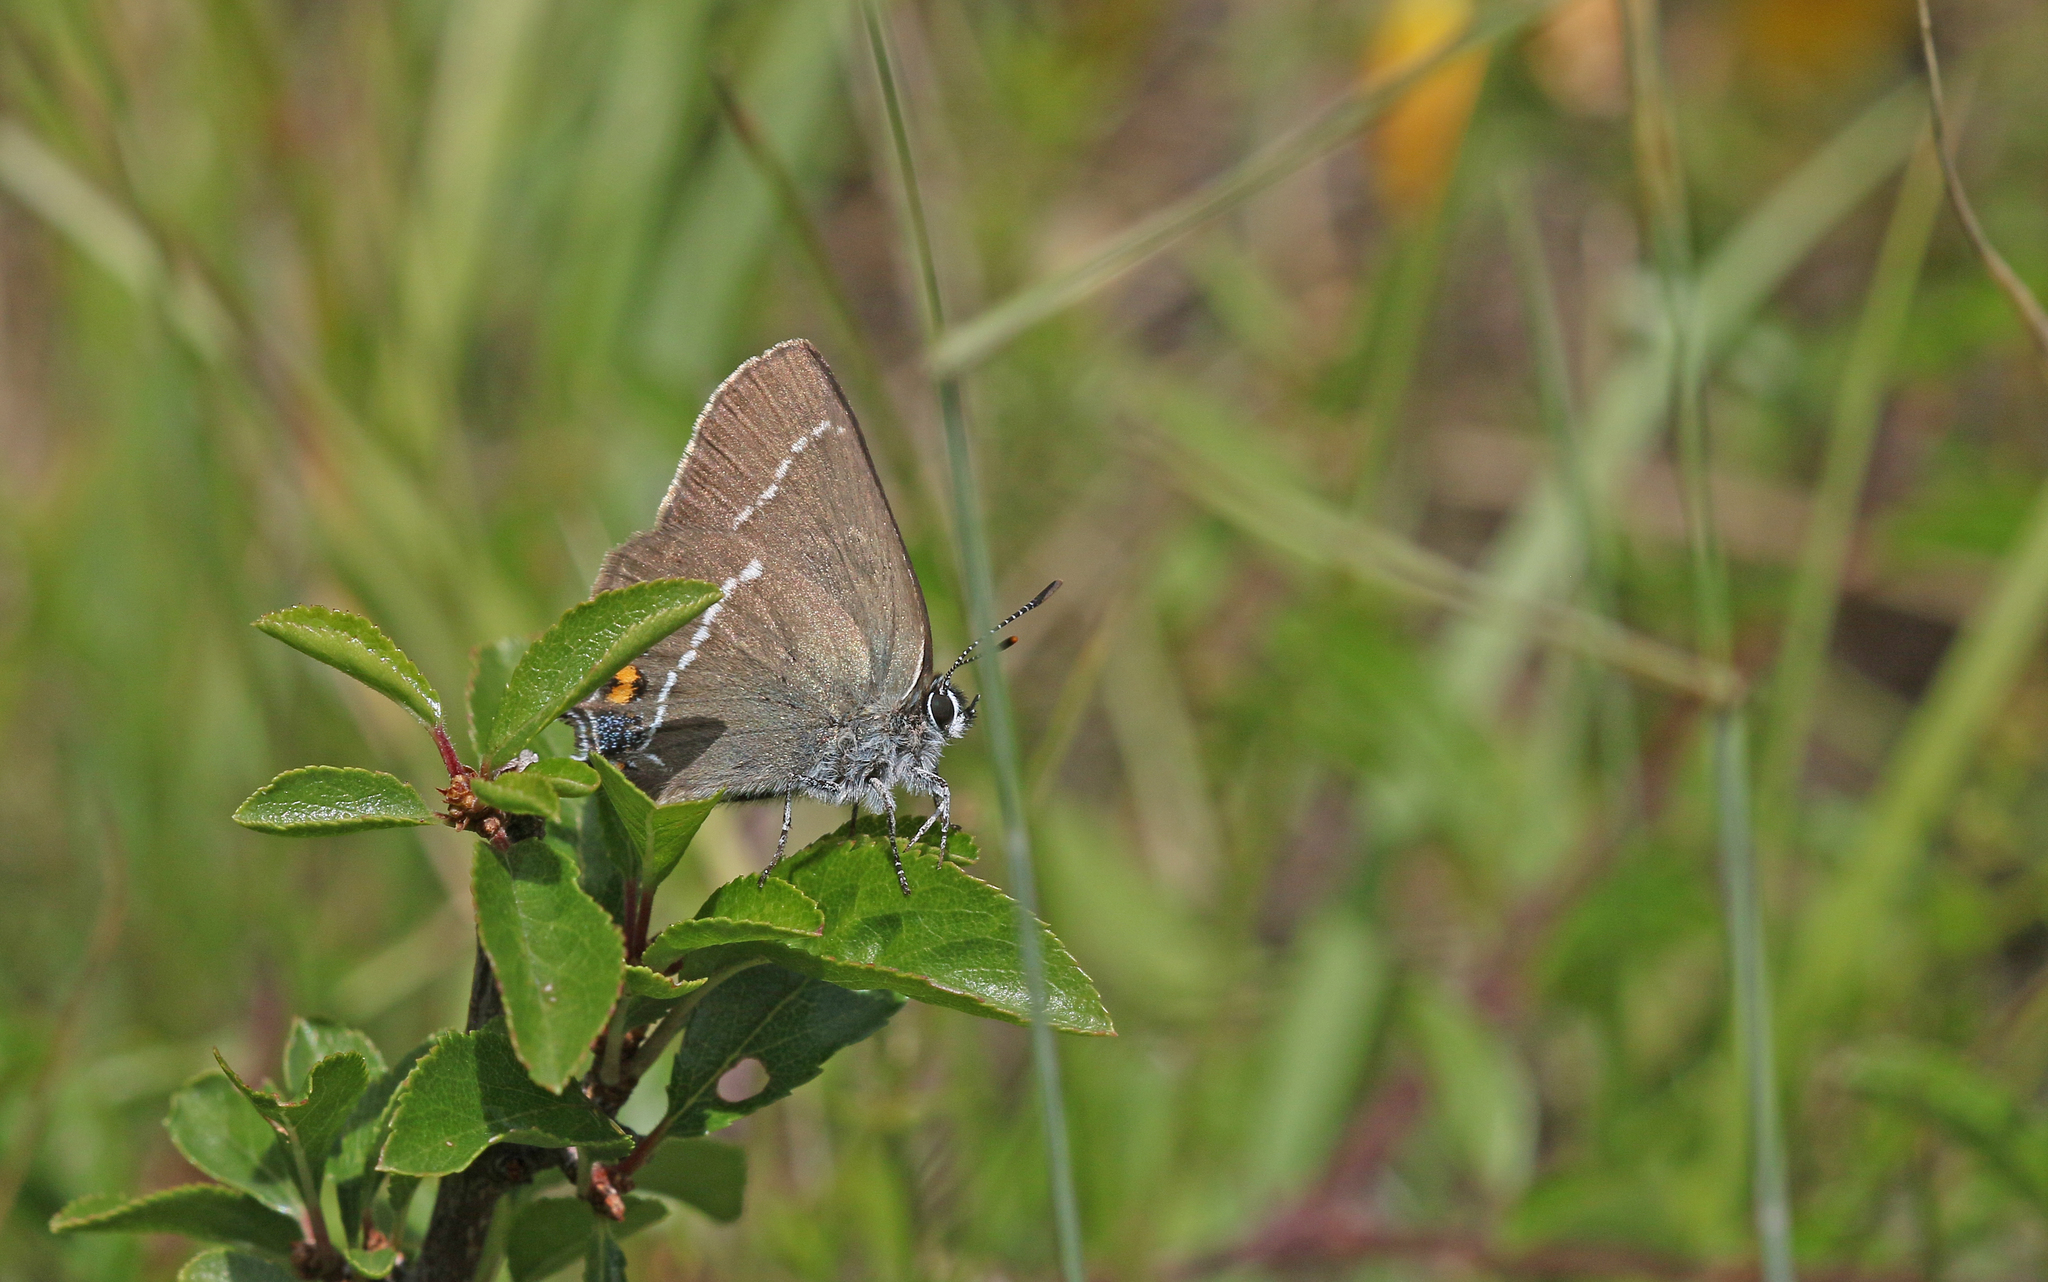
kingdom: Animalia
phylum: Arthropoda
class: Insecta
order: Lepidoptera
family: Lycaenidae
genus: Tuttiola
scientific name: Tuttiola spini
